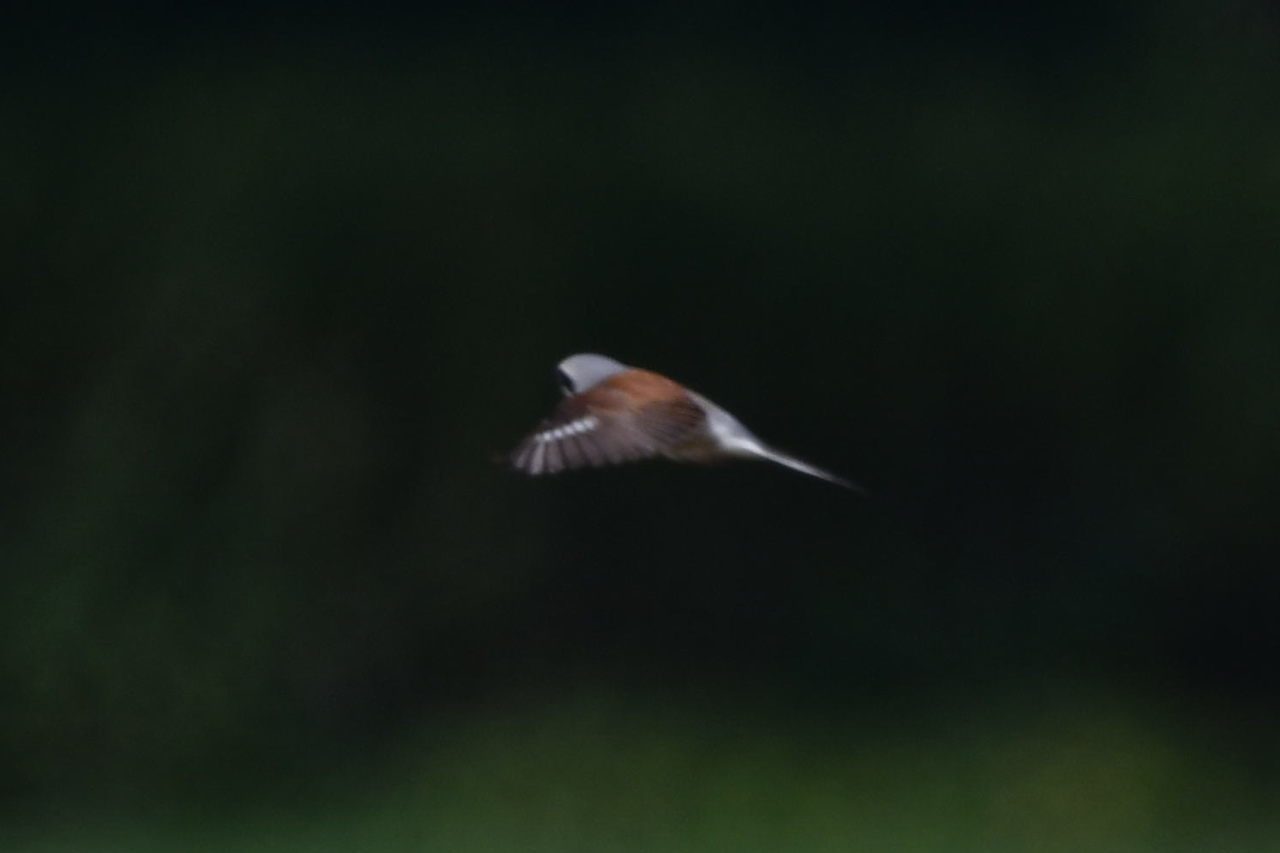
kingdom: Animalia
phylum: Chordata
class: Aves
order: Passeriformes
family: Laniidae
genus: Lanius
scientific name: Lanius collurio
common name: Red-backed shrike
